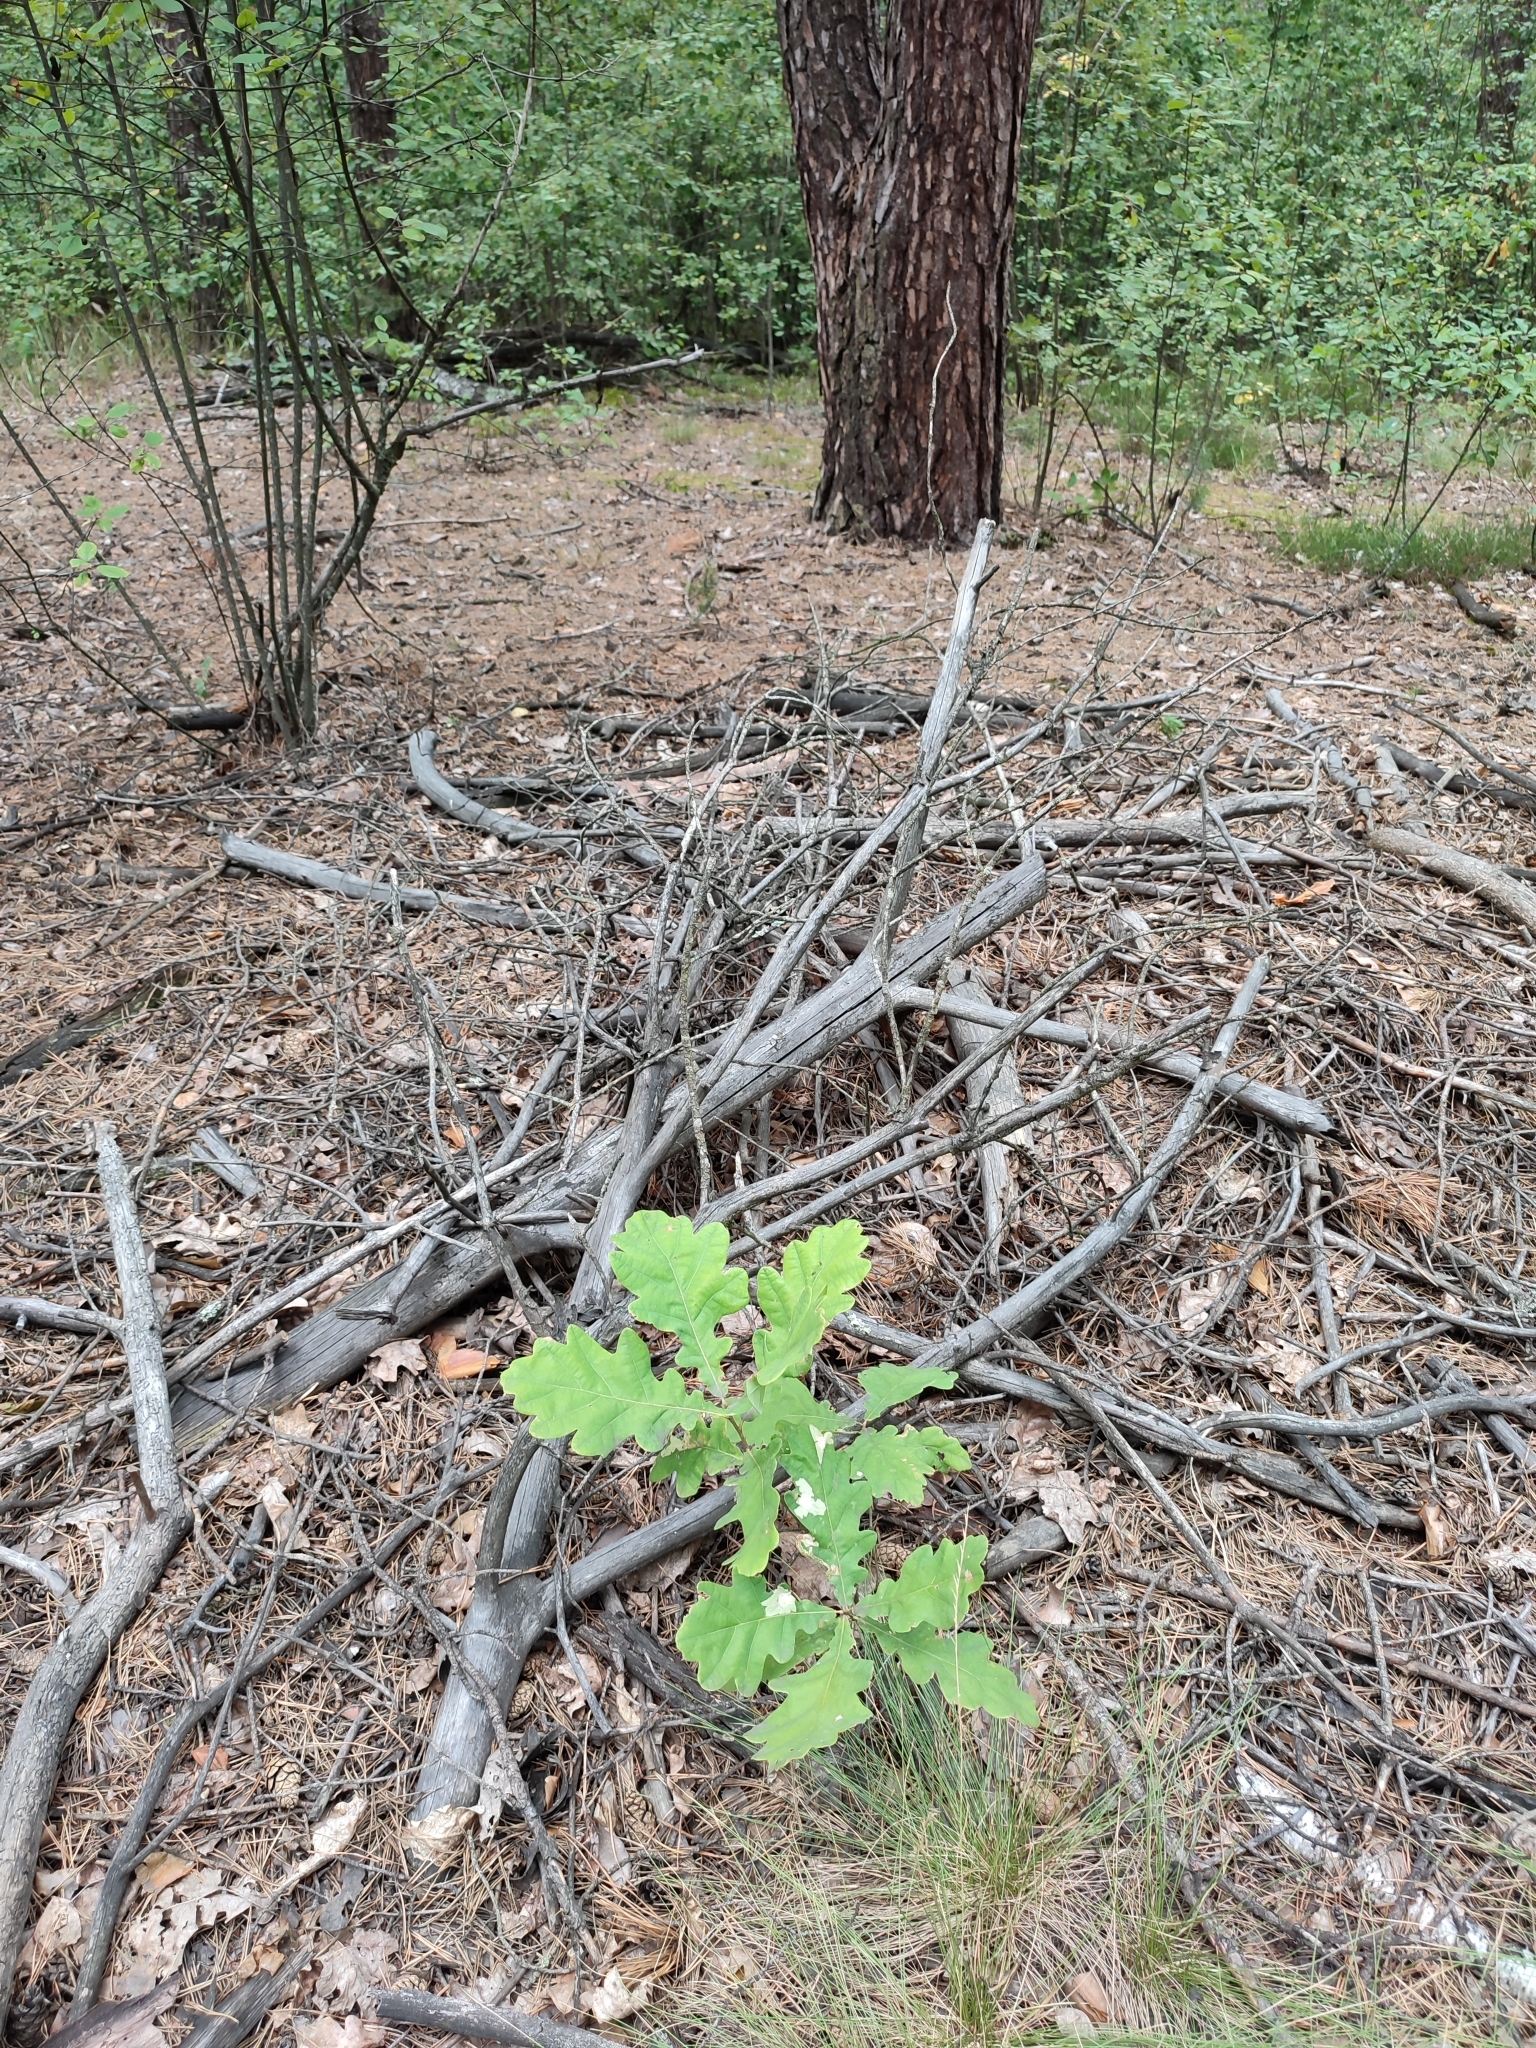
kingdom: Plantae
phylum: Tracheophyta
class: Magnoliopsida
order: Fagales
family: Fagaceae
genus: Quercus
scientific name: Quercus robur
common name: Pedunculate oak
